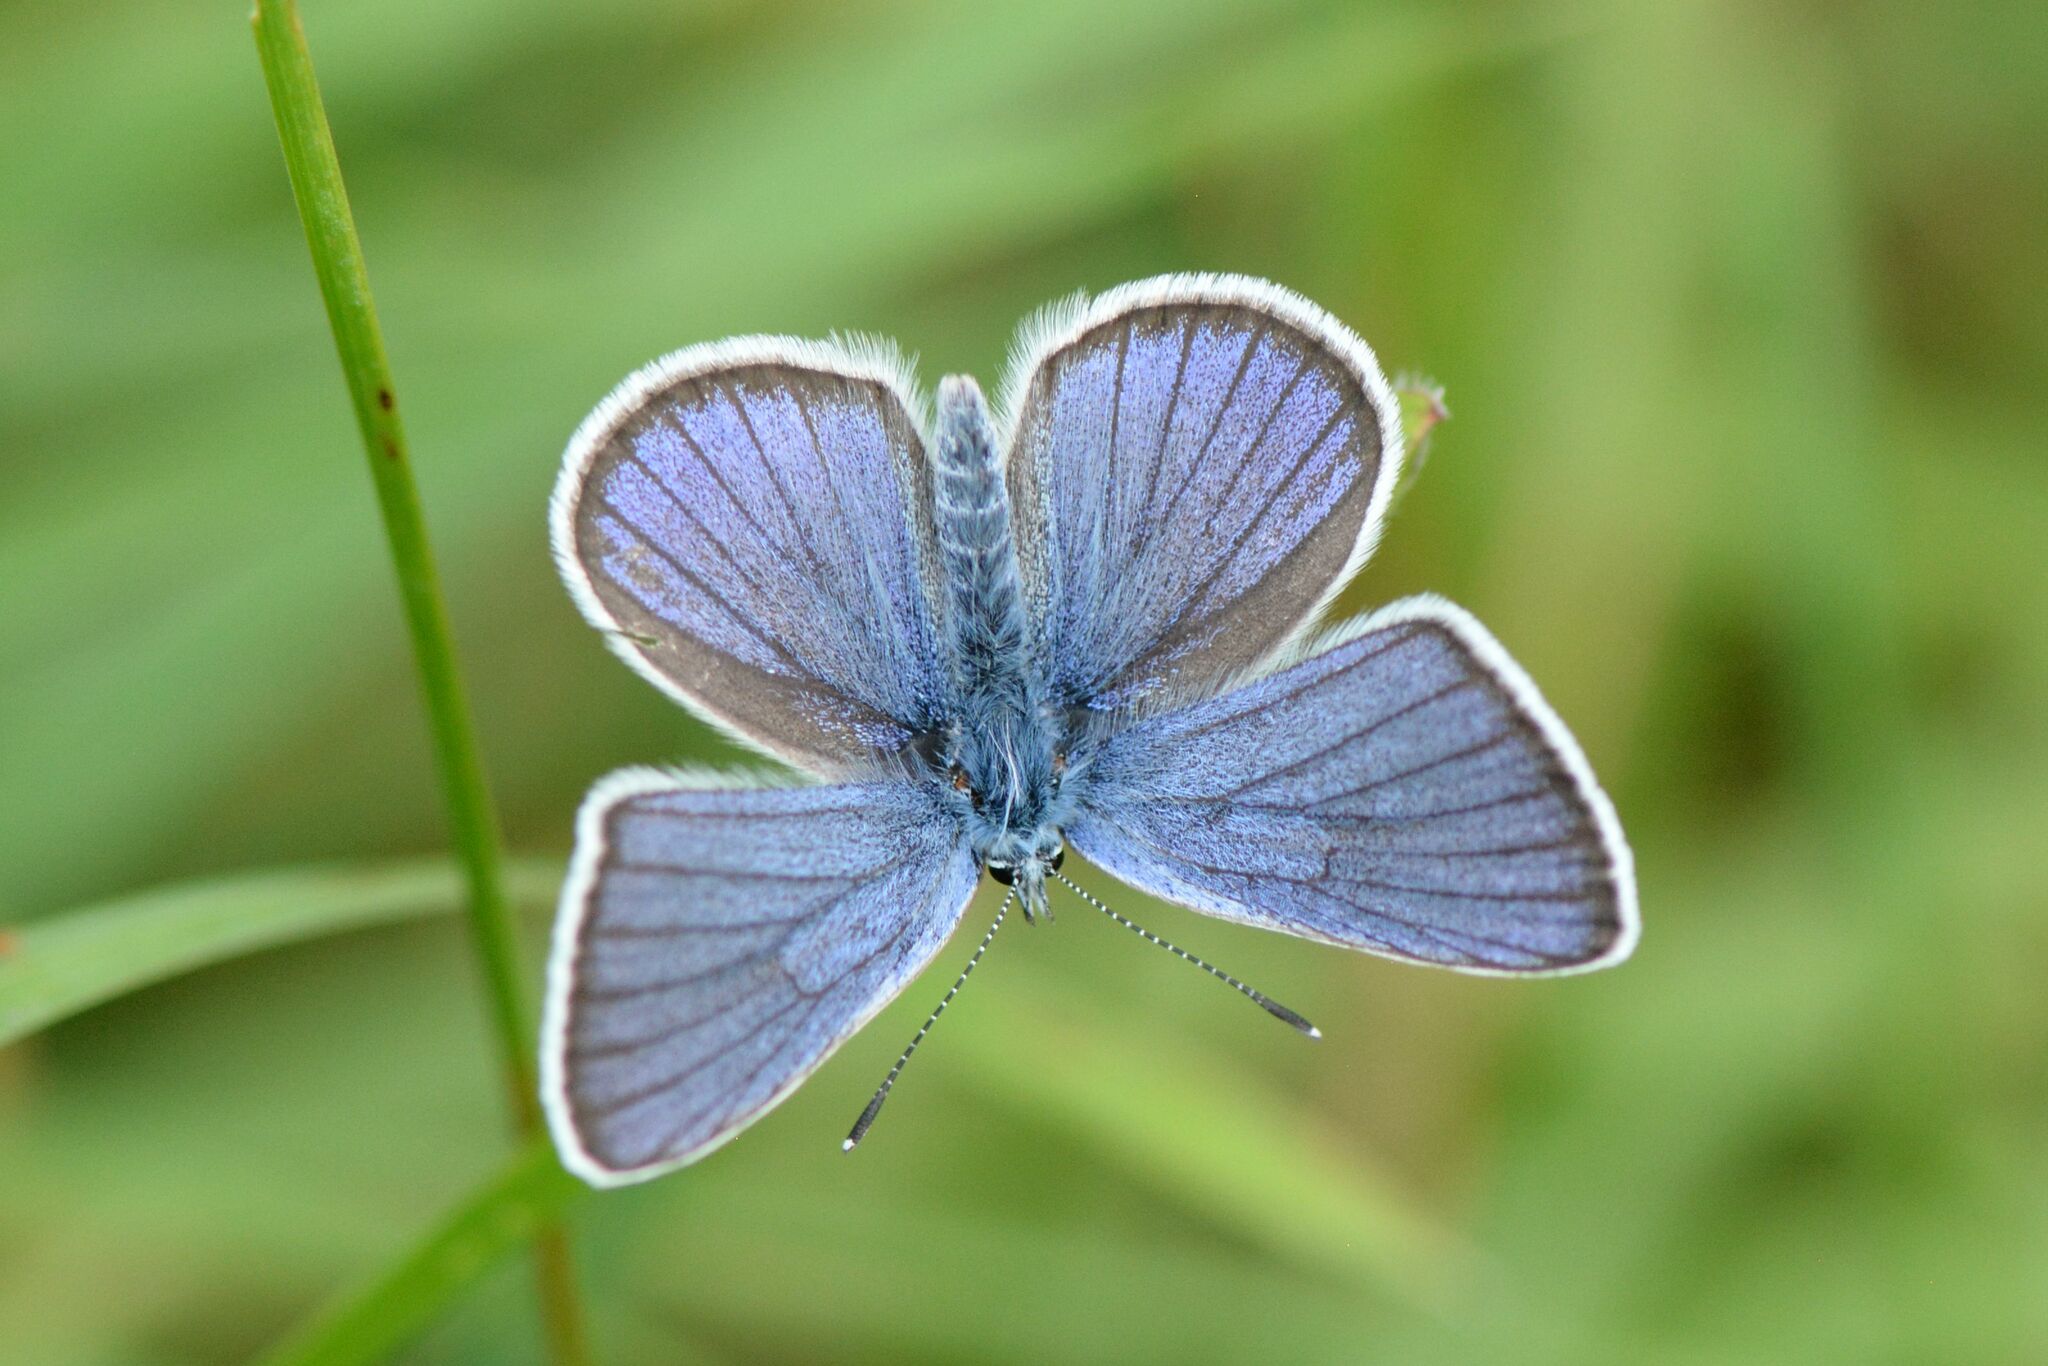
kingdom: Animalia
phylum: Arthropoda
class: Insecta
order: Lepidoptera
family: Lycaenidae
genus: Cyaniris
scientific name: Cyaniris semiargus
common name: Mazarine blue
